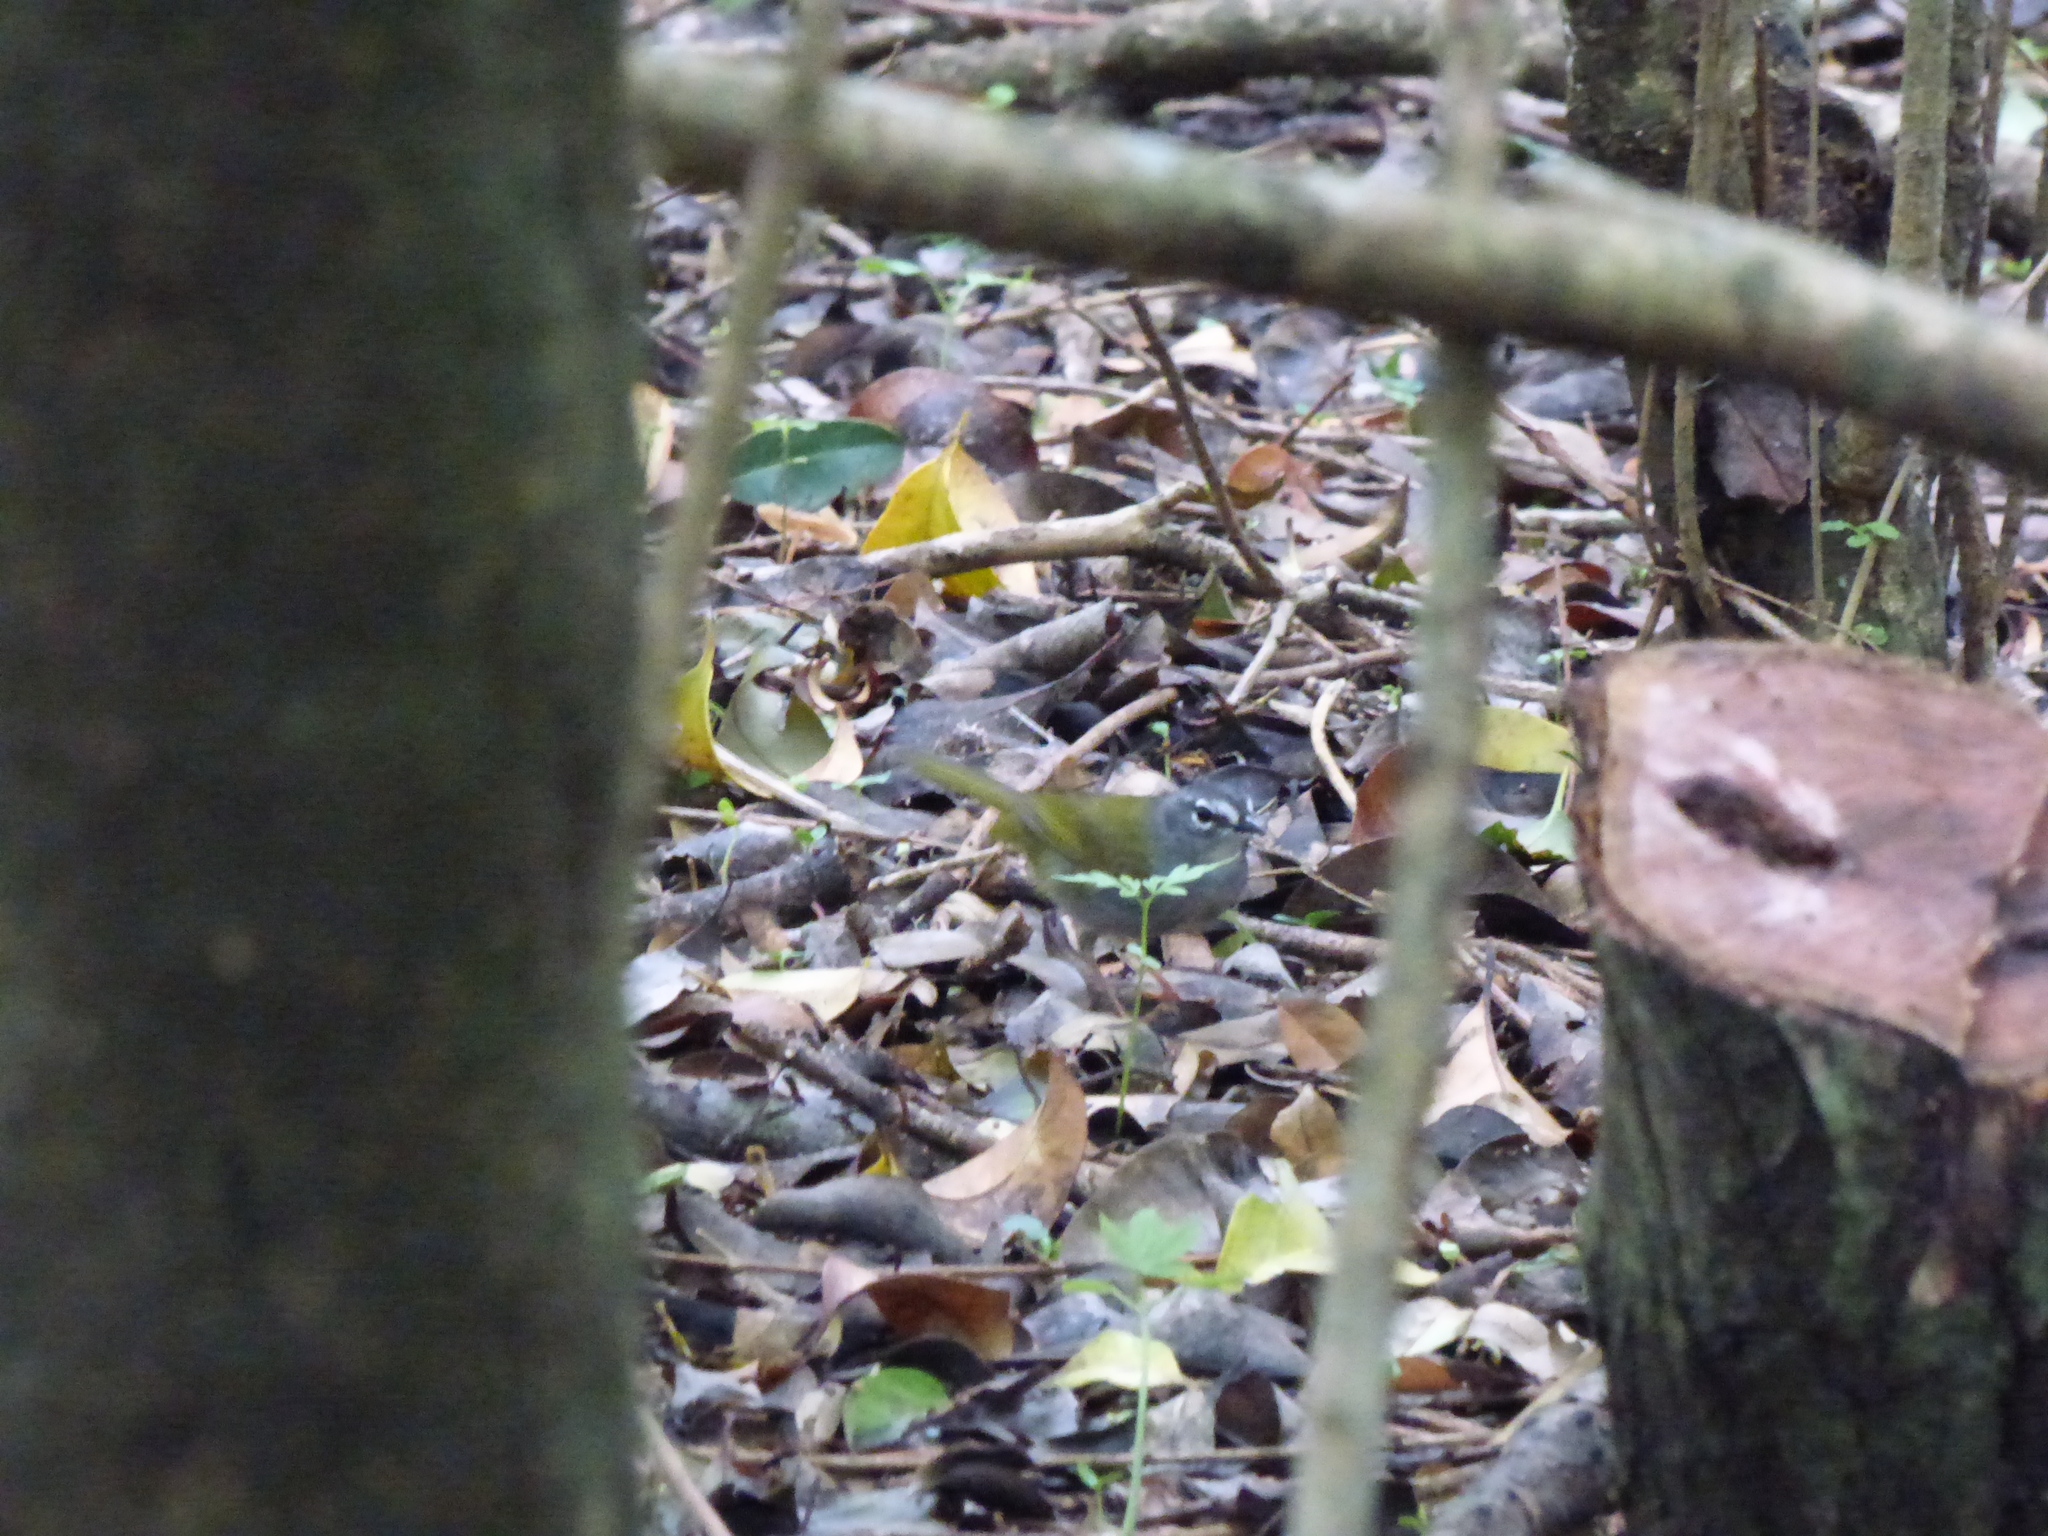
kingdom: Animalia
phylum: Chordata
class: Aves
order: Passeriformes
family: Parulidae
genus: Myiothlypis
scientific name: Myiothlypis leucoblephara
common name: White-rimmed warbler
